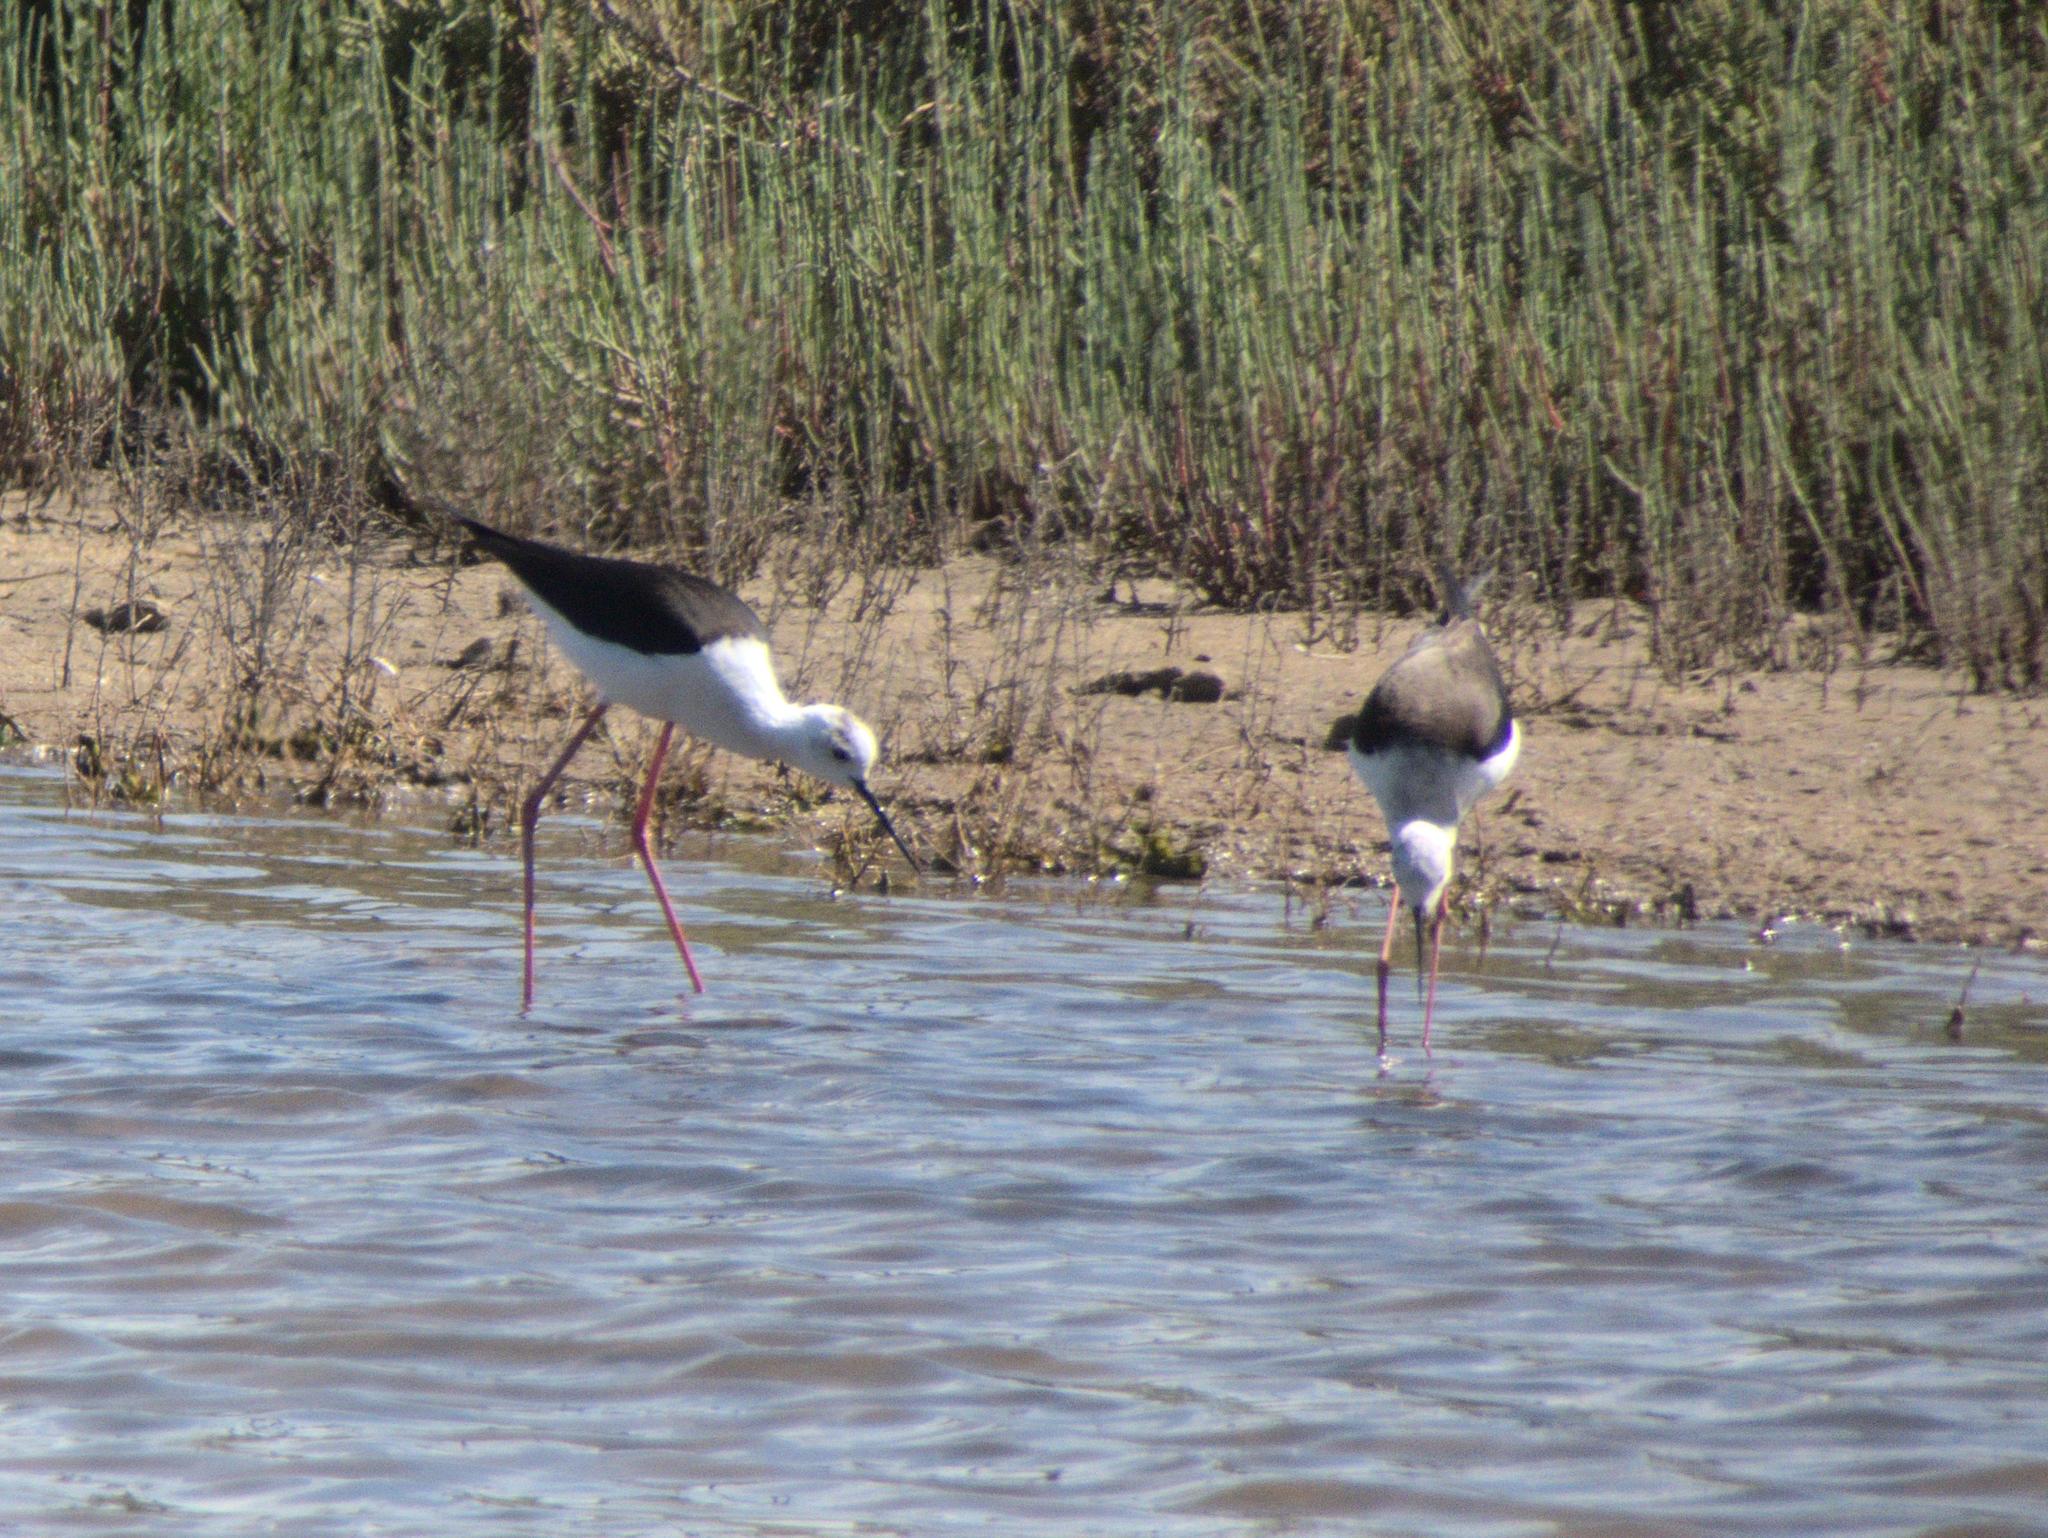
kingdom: Animalia
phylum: Chordata
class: Aves
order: Charadriiformes
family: Recurvirostridae
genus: Himantopus
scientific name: Himantopus himantopus
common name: Black-winged stilt
